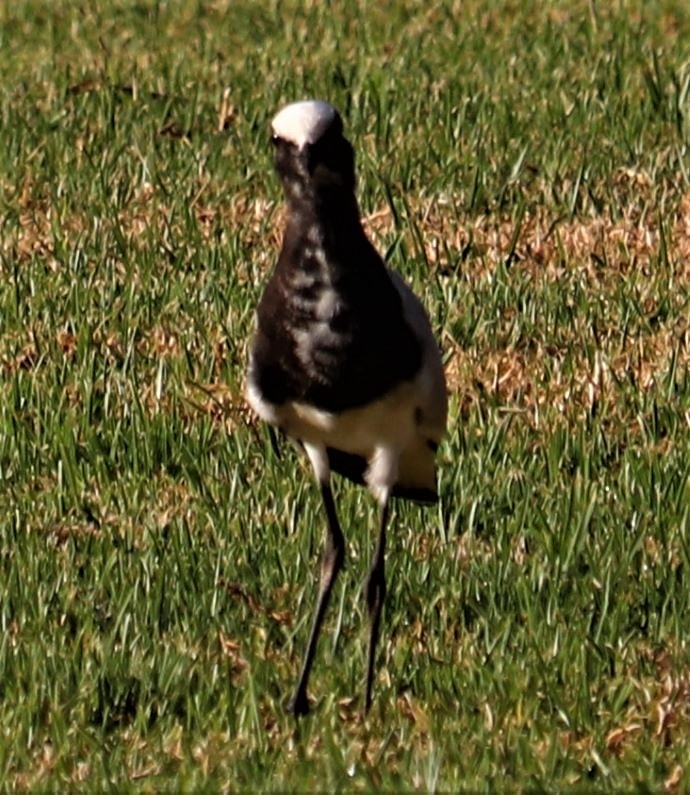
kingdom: Animalia
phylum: Chordata
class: Aves
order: Charadriiformes
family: Charadriidae
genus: Vanellus
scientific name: Vanellus armatus
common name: Blacksmith lapwing
